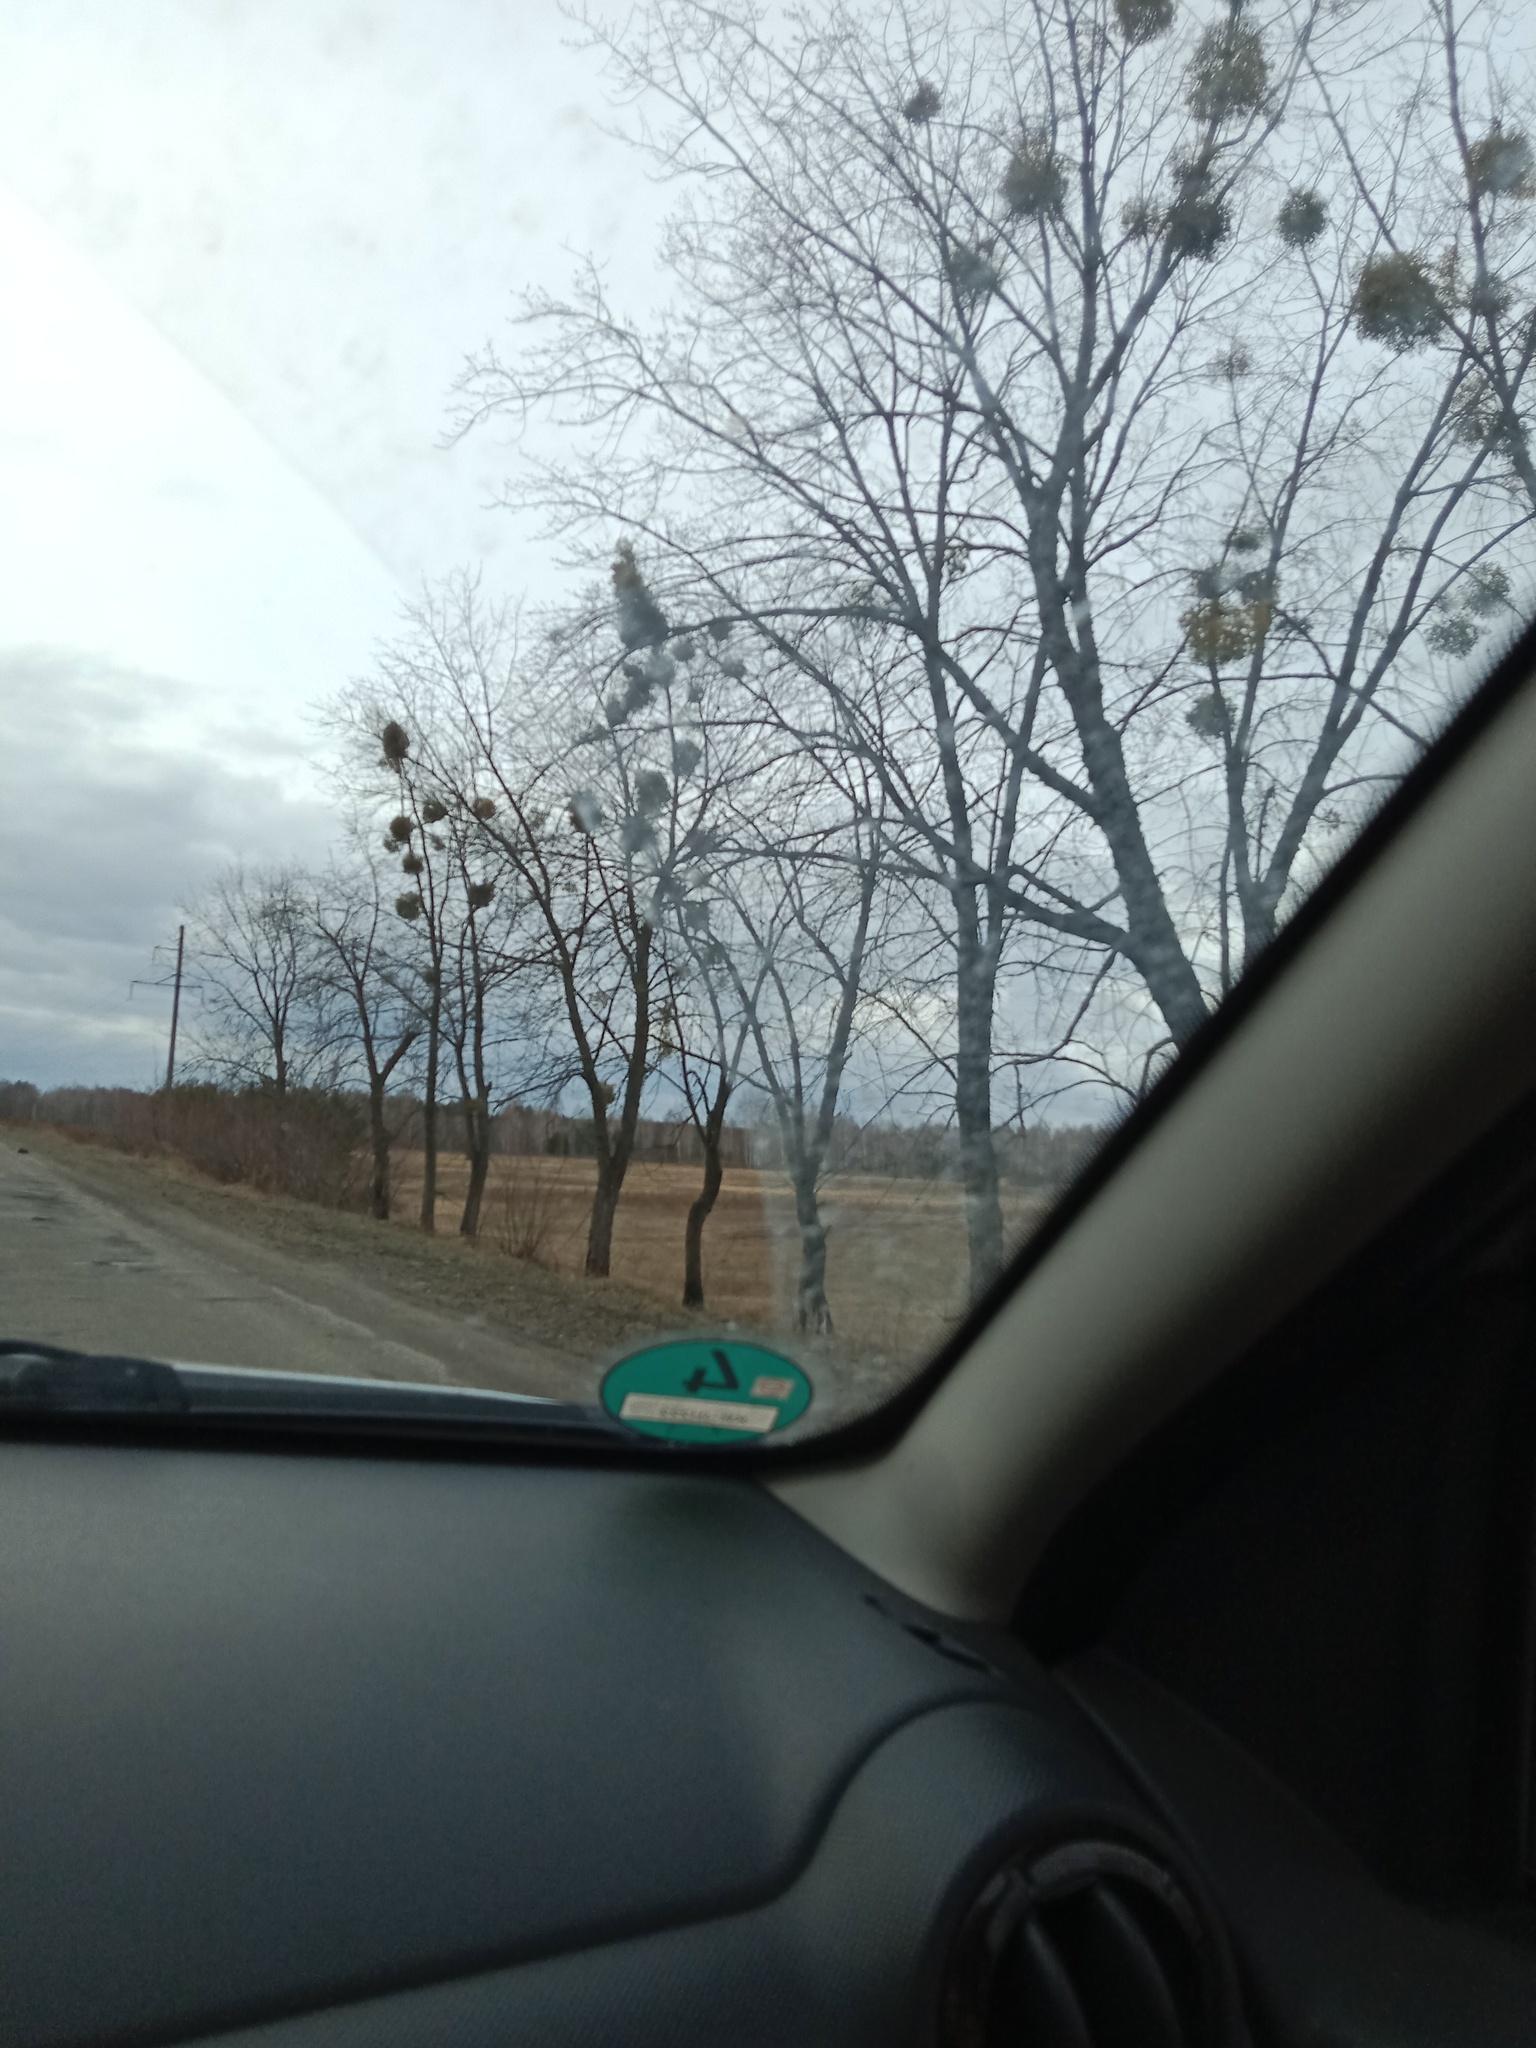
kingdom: Plantae
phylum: Tracheophyta
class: Magnoliopsida
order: Santalales
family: Viscaceae
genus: Viscum
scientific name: Viscum album
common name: Mistletoe
